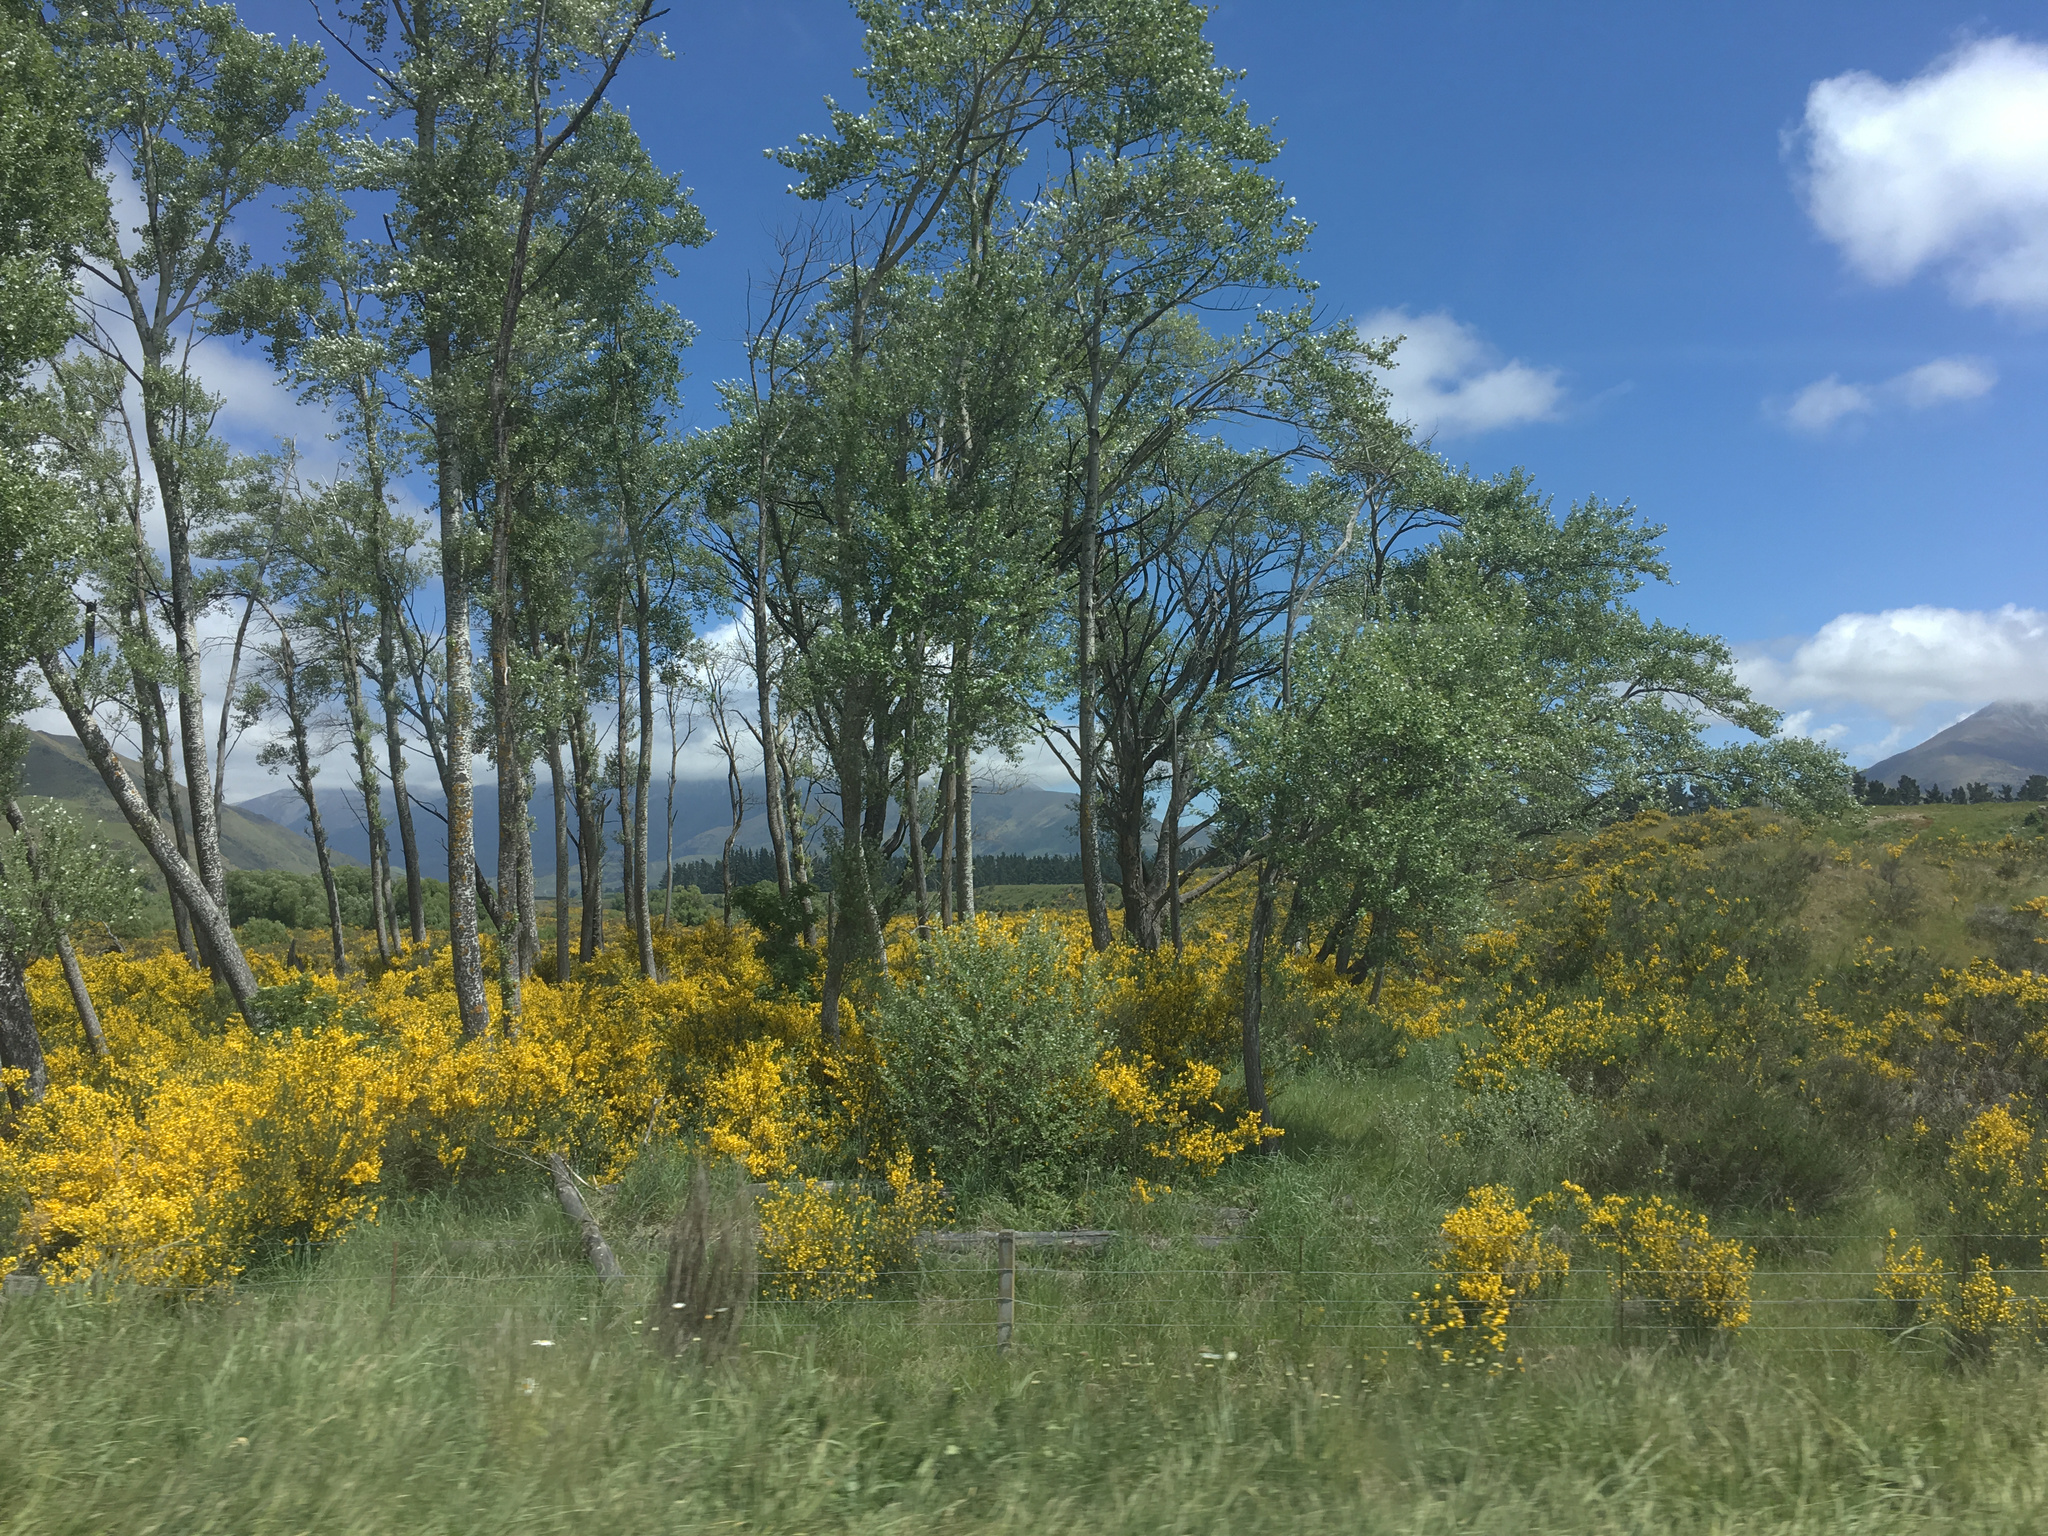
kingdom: Plantae
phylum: Tracheophyta
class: Magnoliopsida
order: Fabales
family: Fabaceae
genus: Cytisus
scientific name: Cytisus scoparius
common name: Scotch broom
